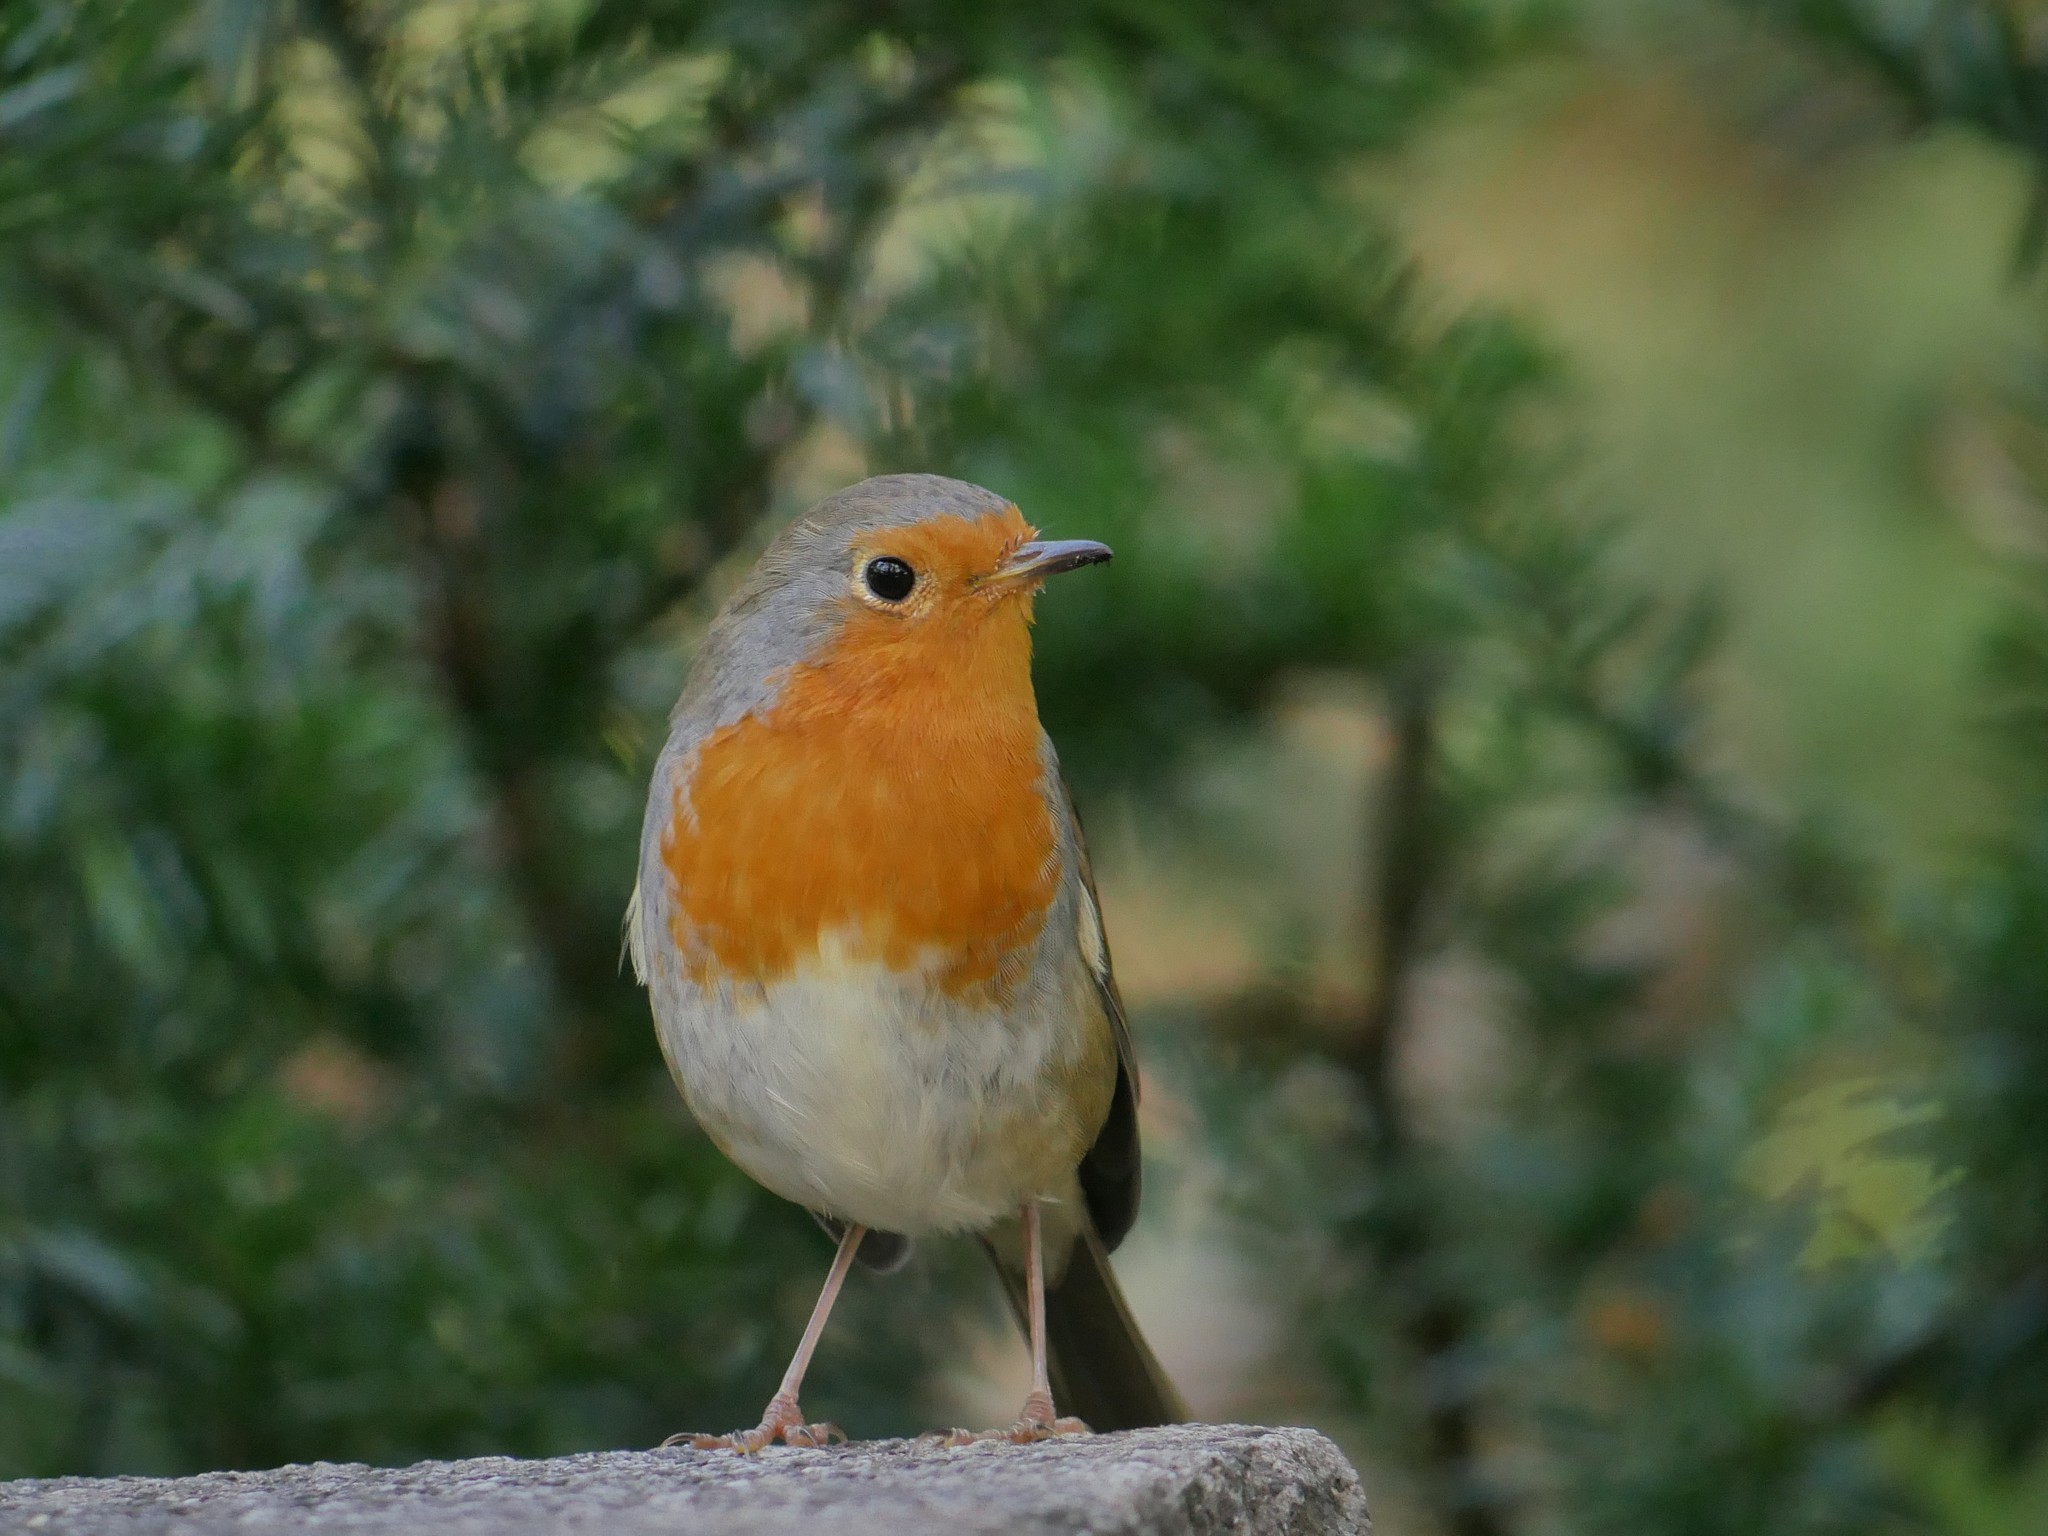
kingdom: Animalia
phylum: Chordata
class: Aves
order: Passeriformes
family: Muscicapidae
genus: Erithacus
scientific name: Erithacus rubecula
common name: European robin
